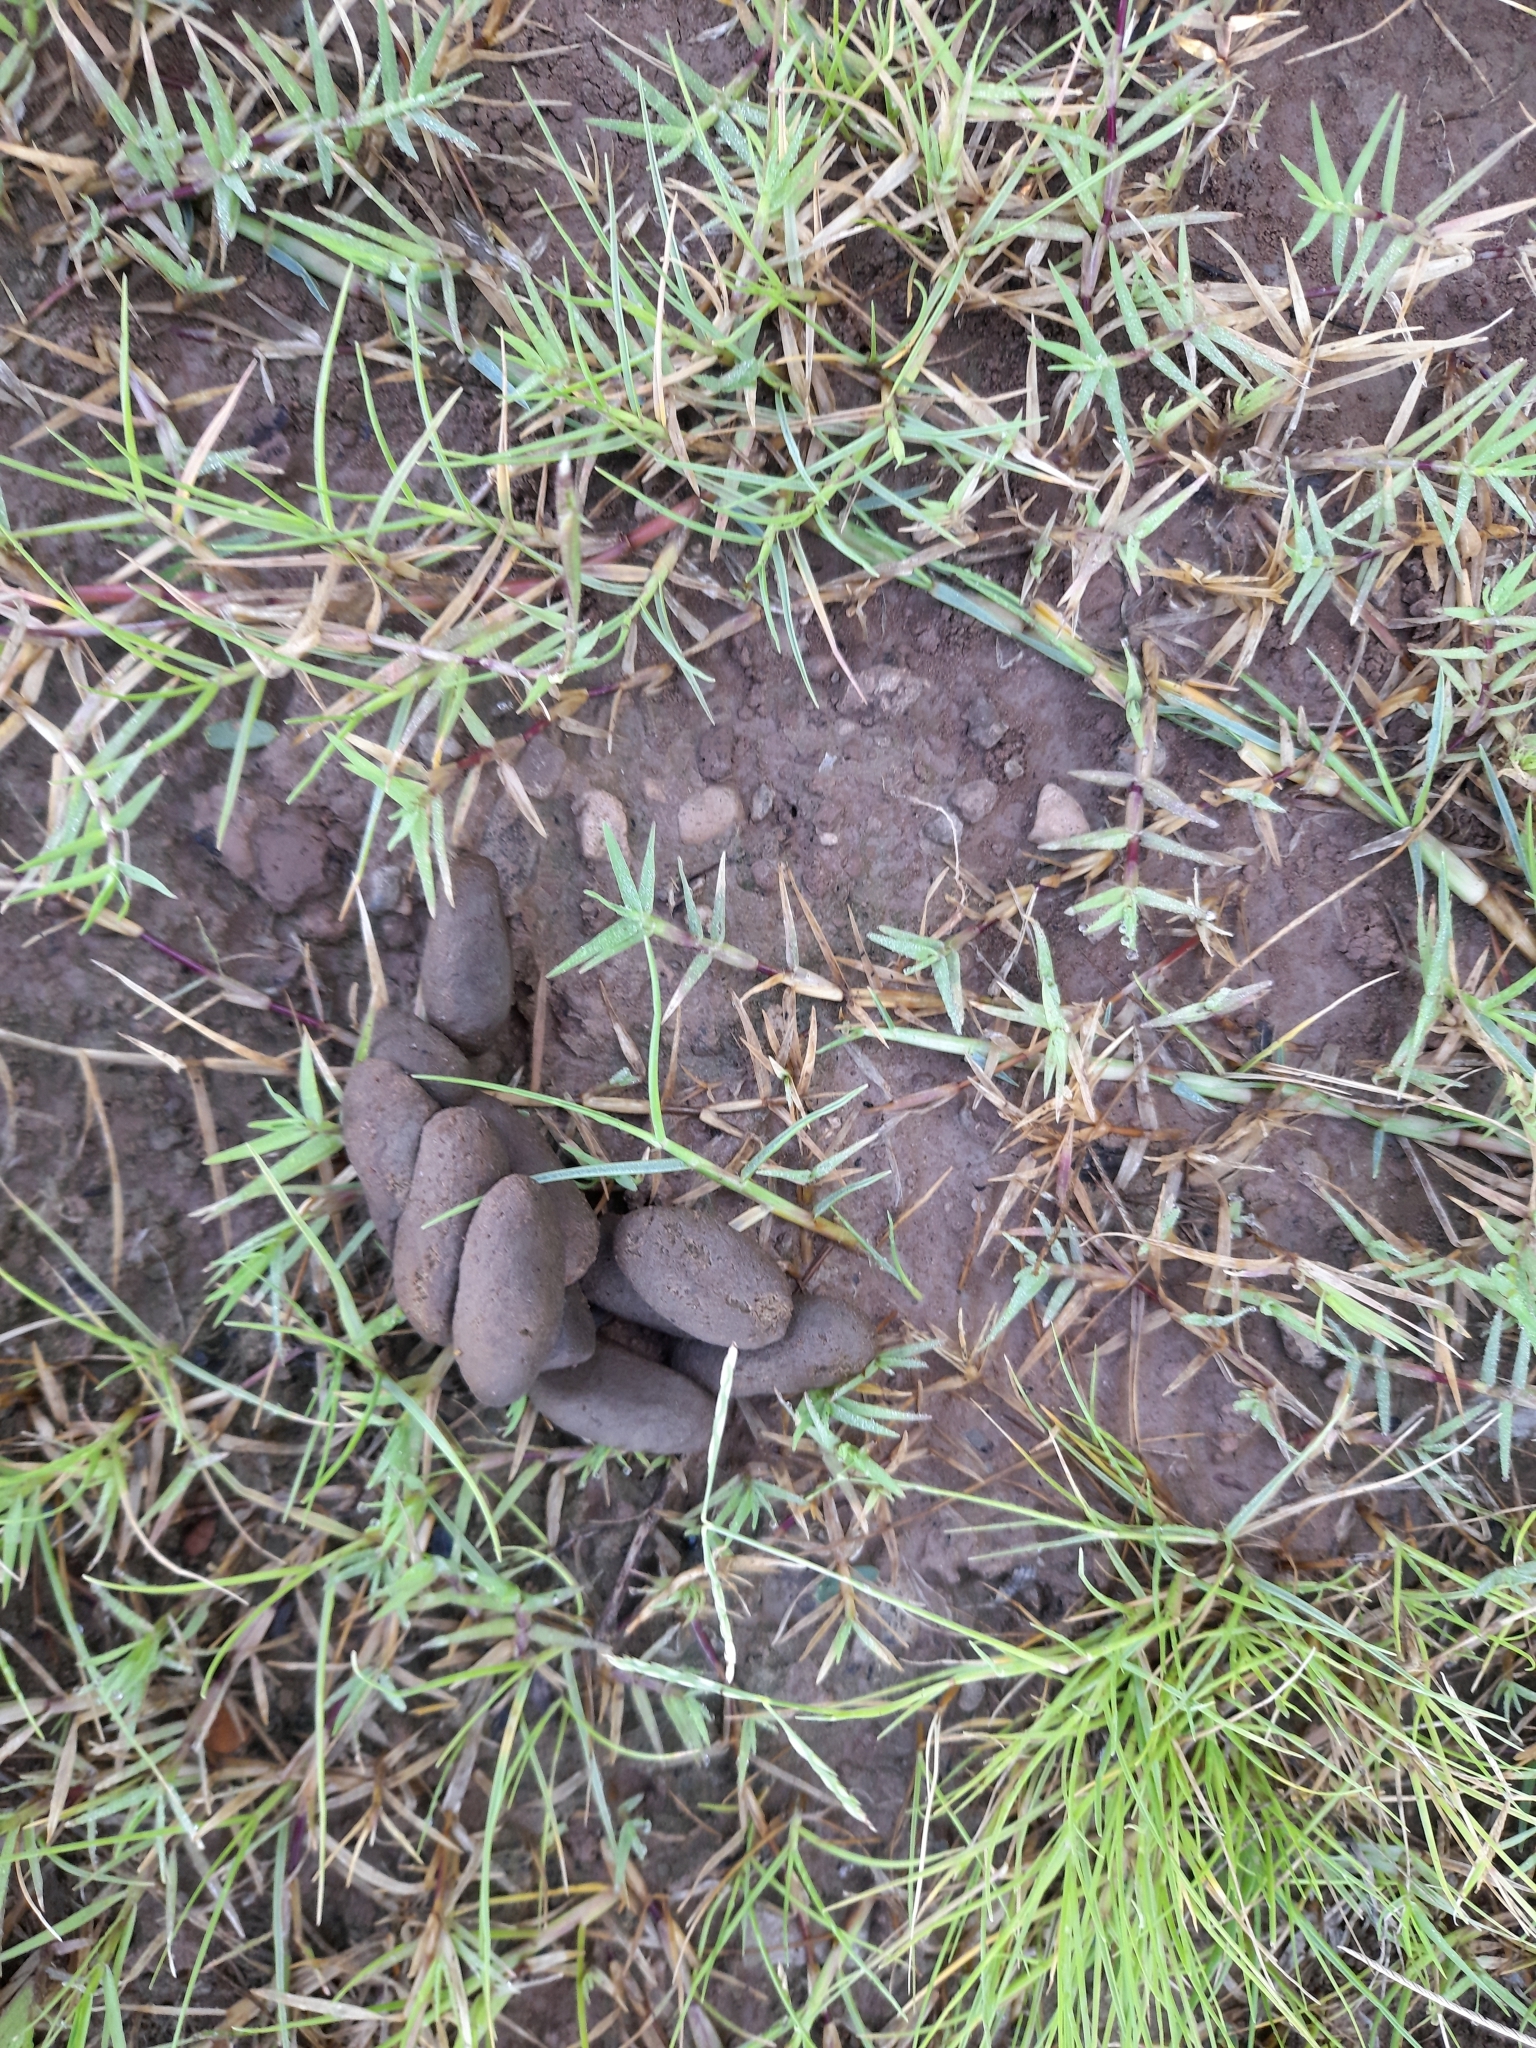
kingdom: Animalia
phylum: Chordata
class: Mammalia
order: Rodentia
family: Caviidae
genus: Hydrochoerus
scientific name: Hydrochoerus hydrochaeris
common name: Capybara
